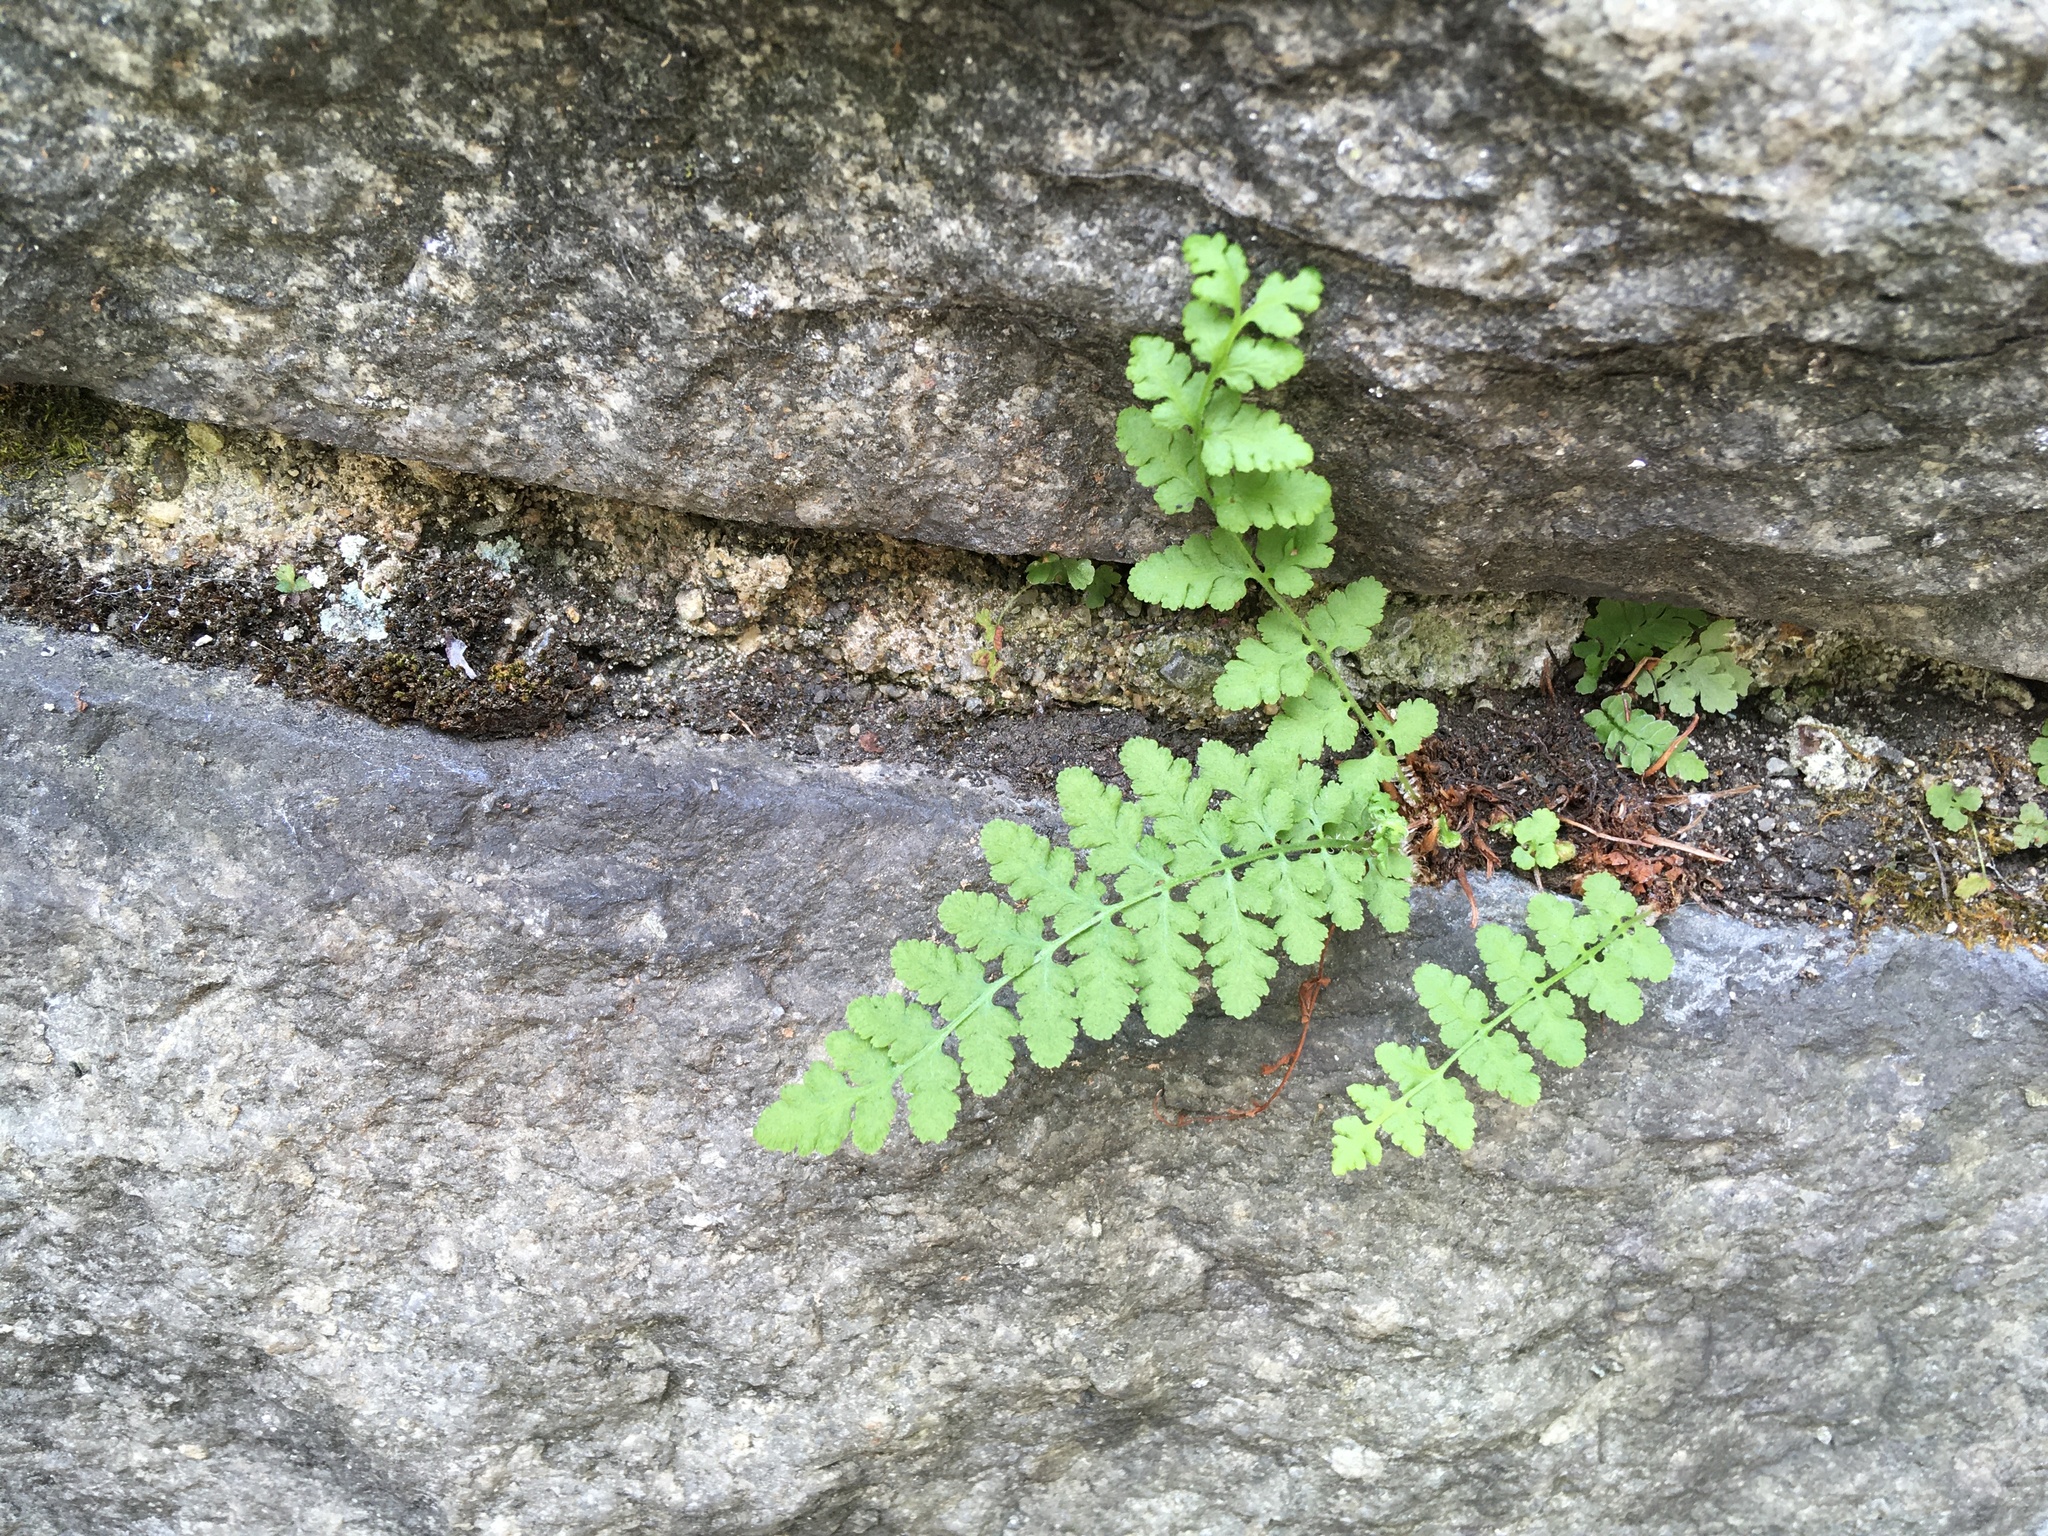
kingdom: Plantae
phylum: Tracheophyta
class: Polypodiopsida
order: Polypodiales
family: Woodsiaceae
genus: Physematium
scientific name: Physematium obtusum
